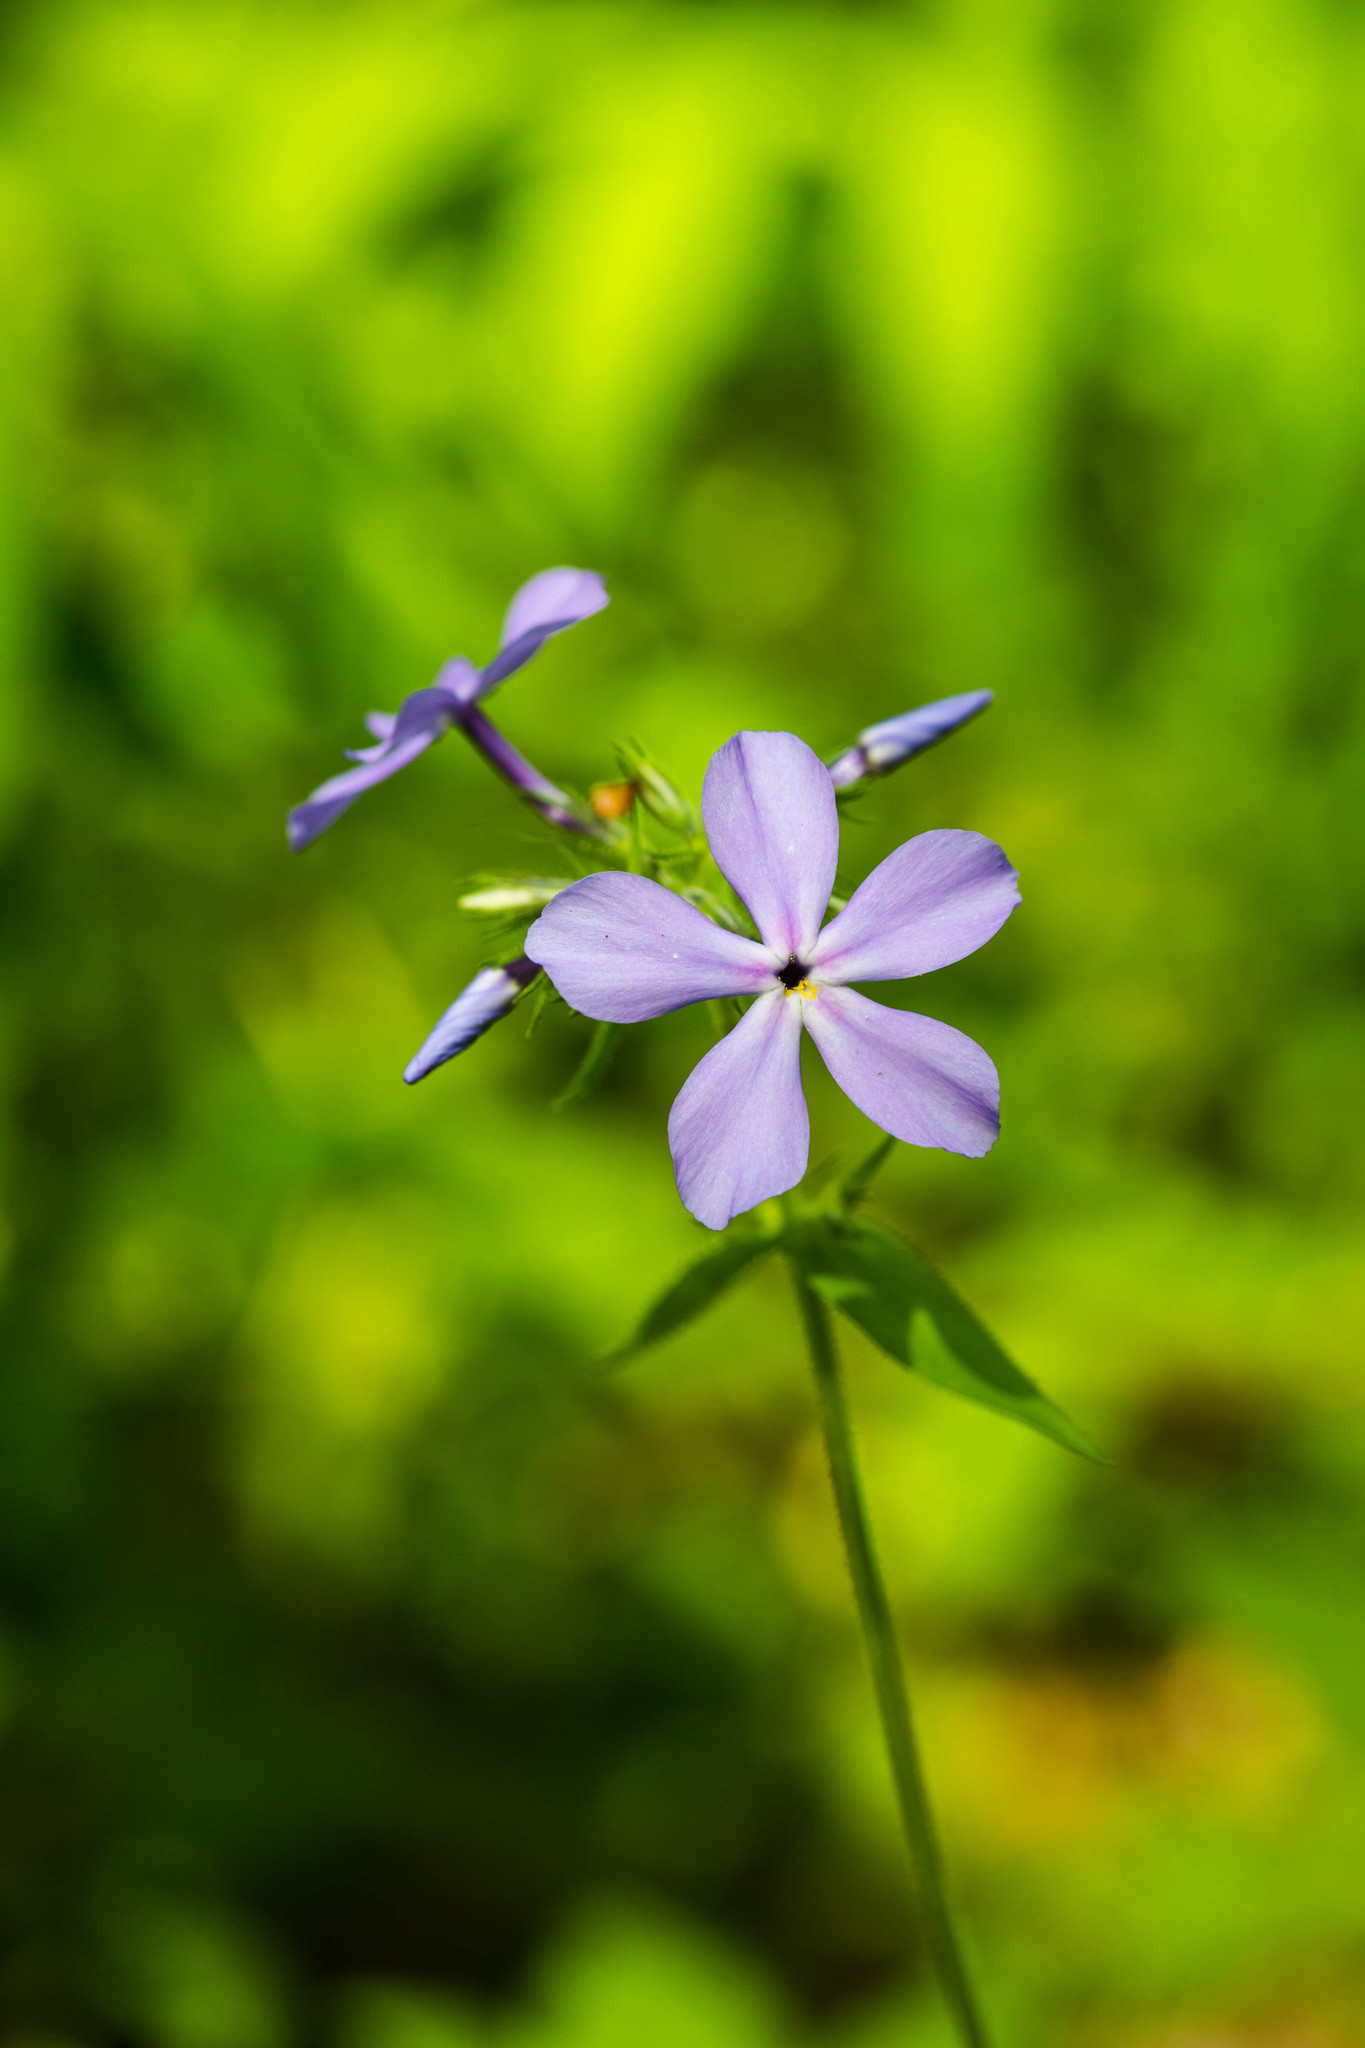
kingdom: Plantae
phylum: Tracheophyta
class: Magnoliopsida
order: Ericales
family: Polemoniaceae
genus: Phlox
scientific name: Phlox divaricata
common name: Blue phlox
